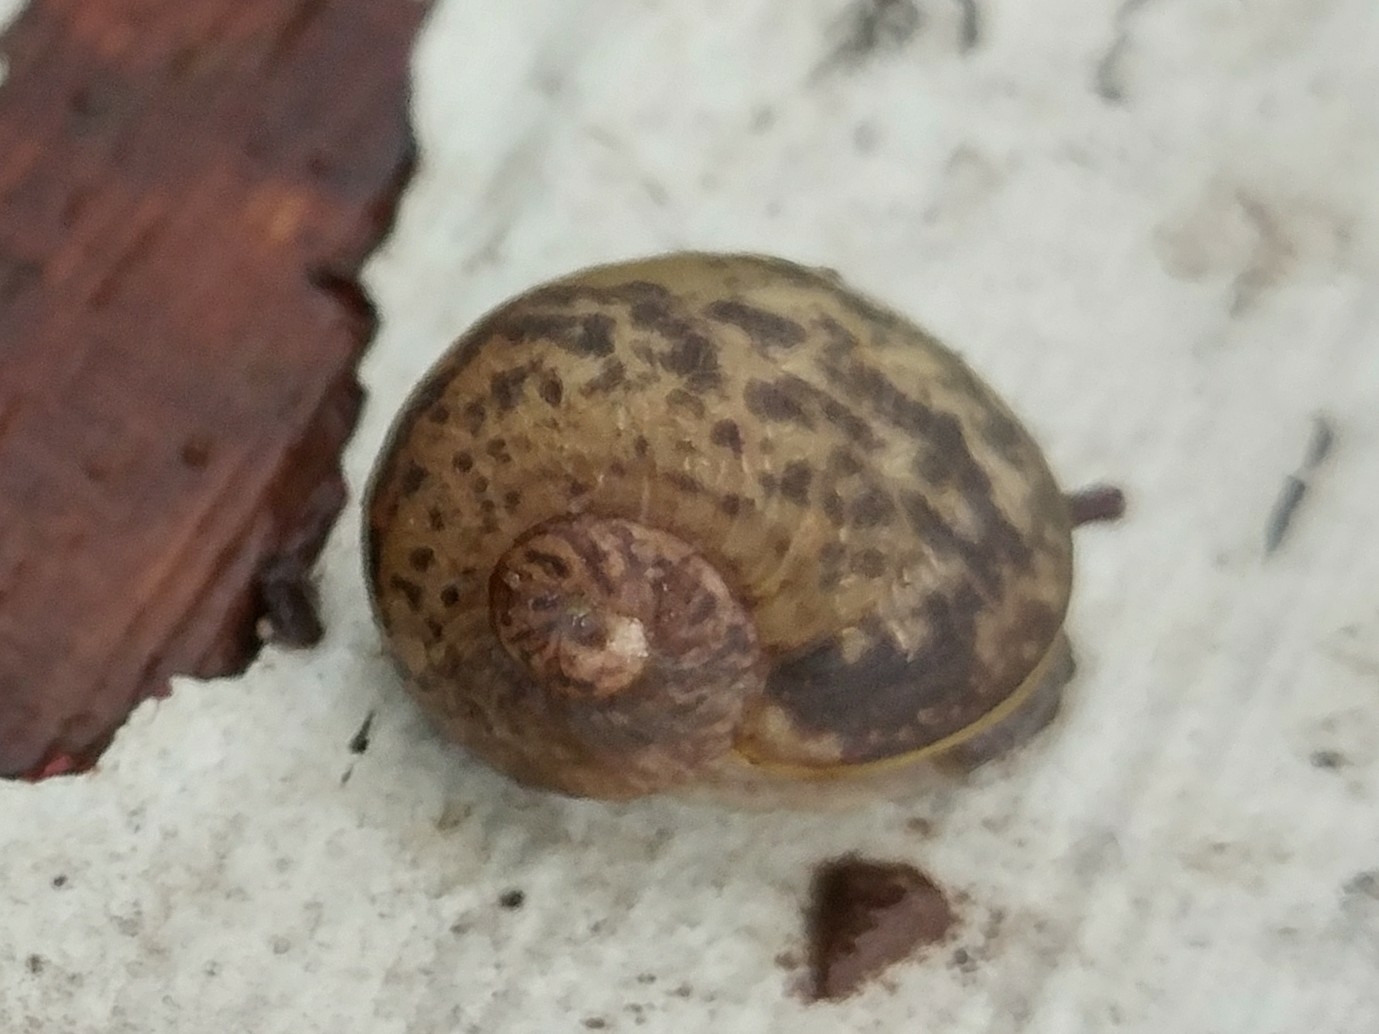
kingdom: Animalia
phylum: Mollusca
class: Gastropoda
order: Stylommatophora
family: Helicidae
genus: Cornu
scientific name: Cornu aspersum
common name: Brown garden snail
